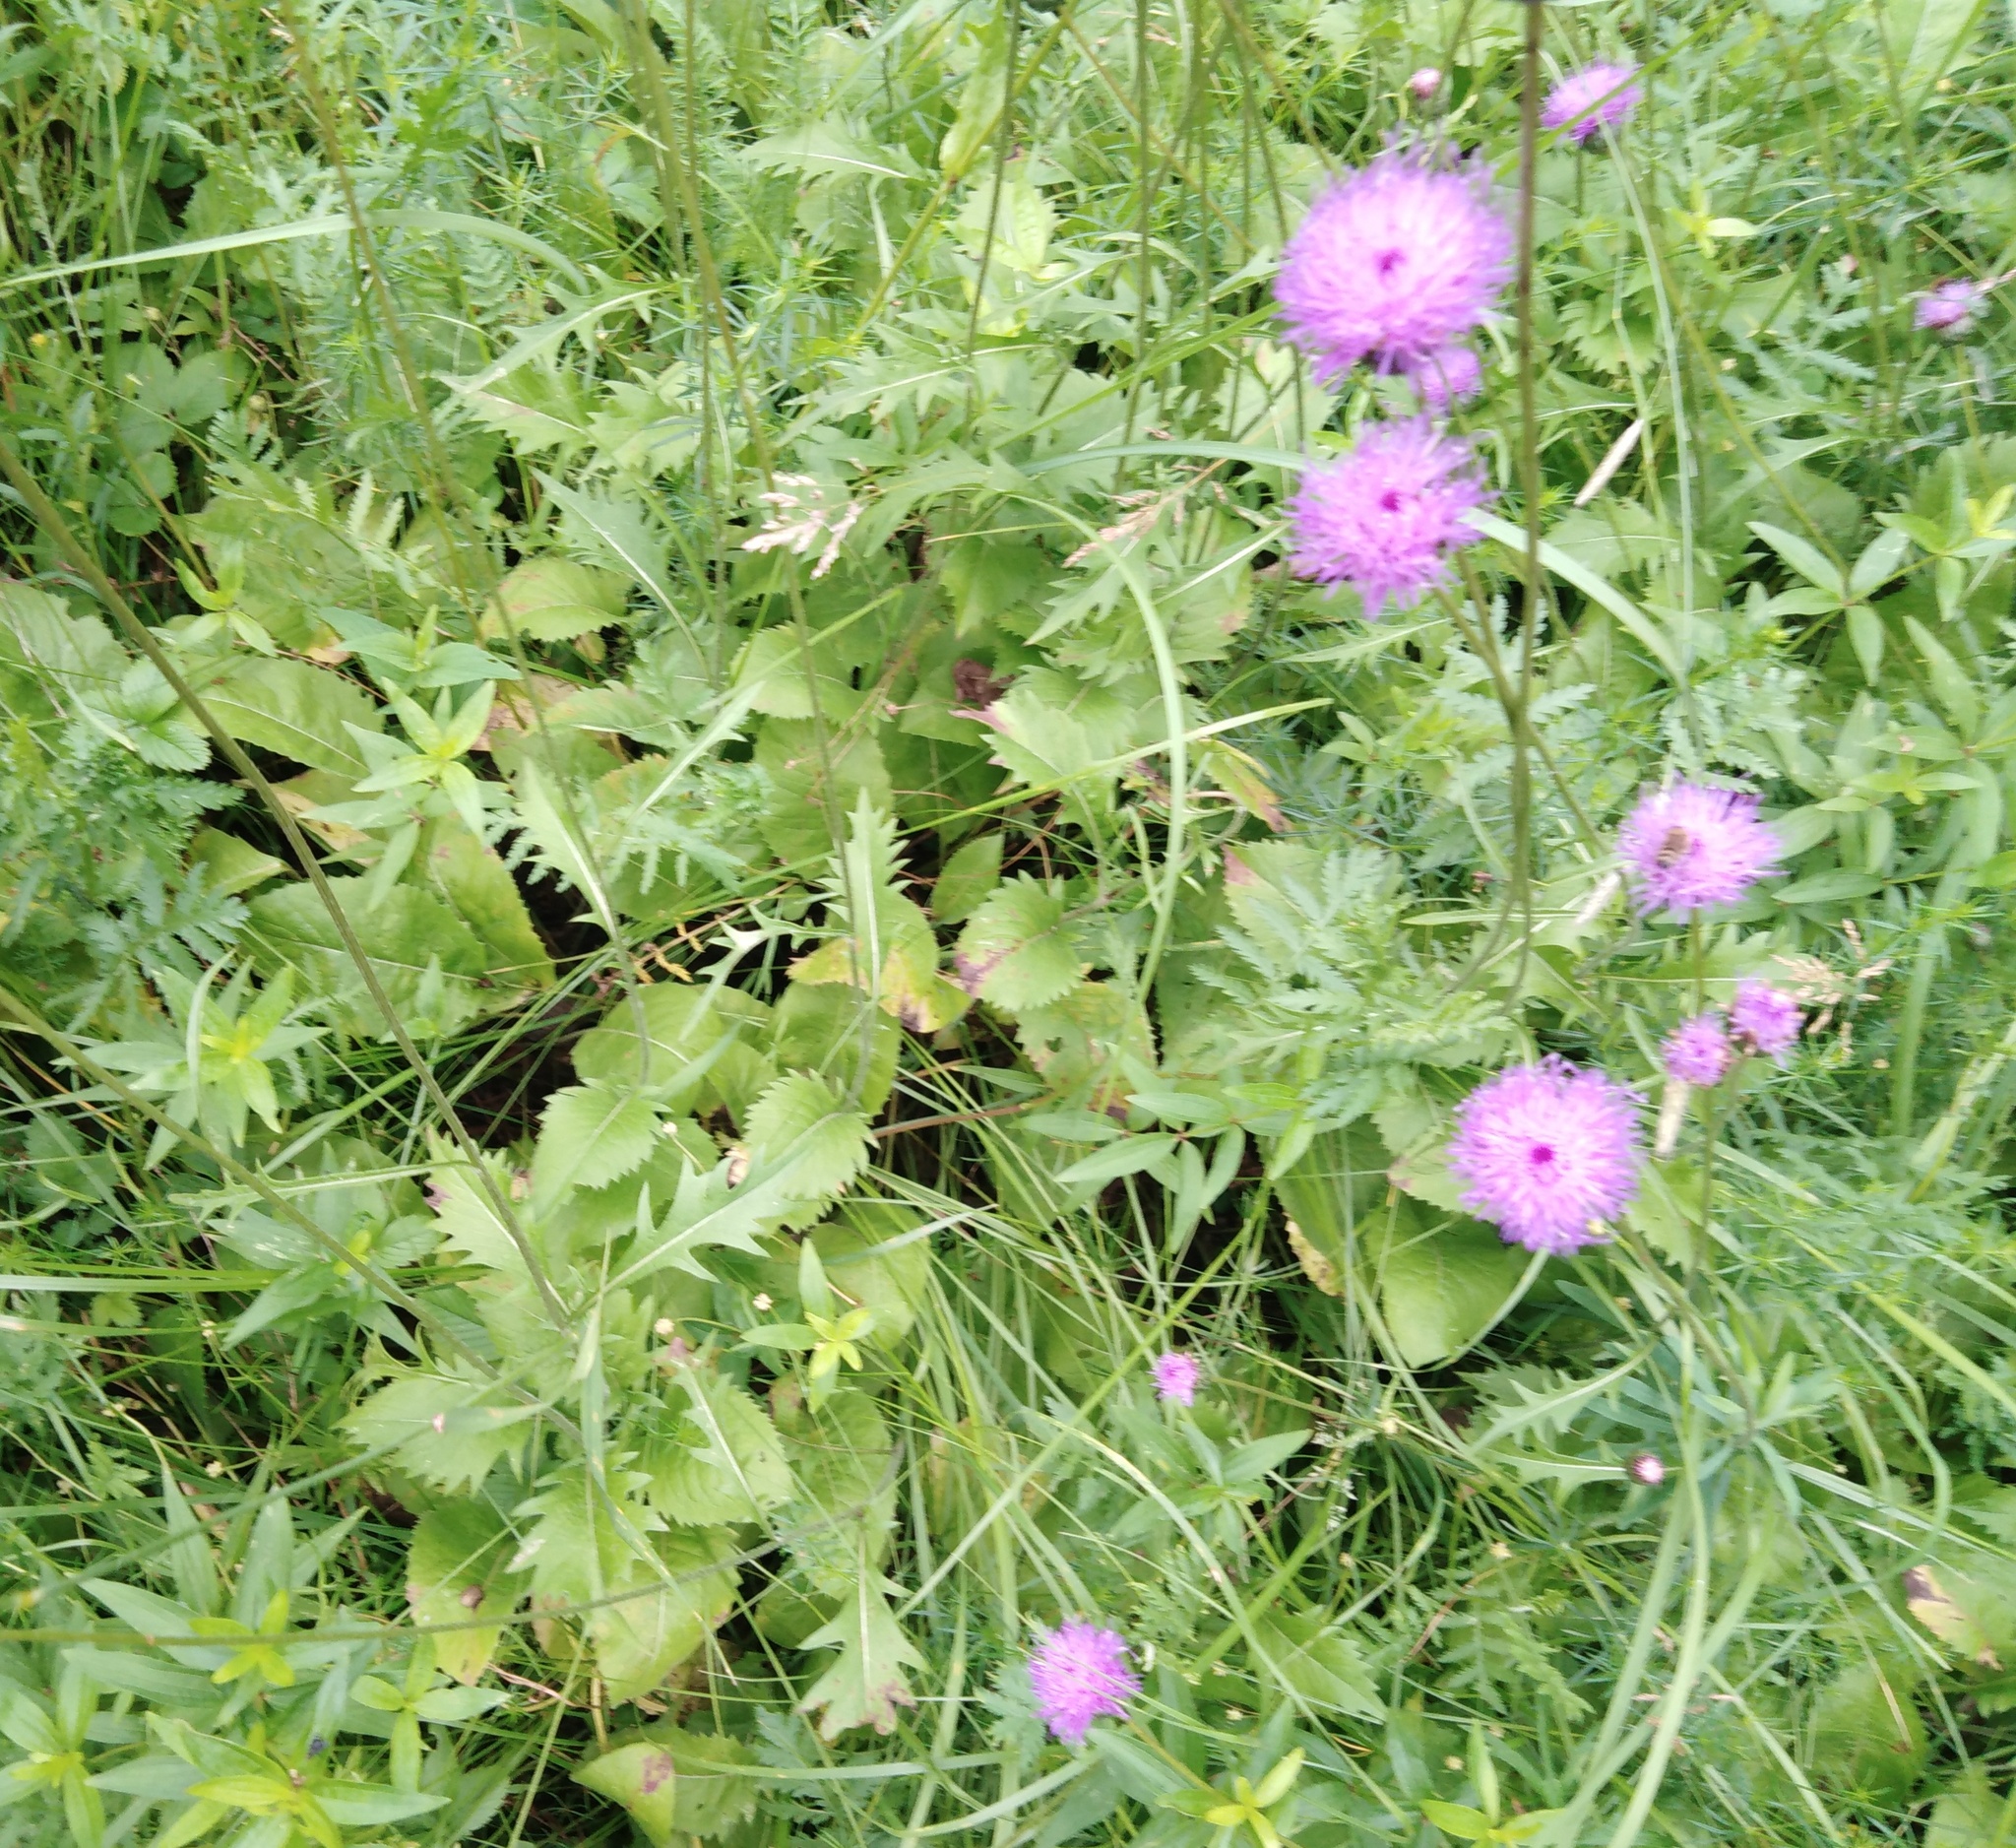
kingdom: Plantae
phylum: Tracheophyta
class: Magnoliopsida
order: Asterales
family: Asteraceae
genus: Klasea
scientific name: Klasea lycopifolia
